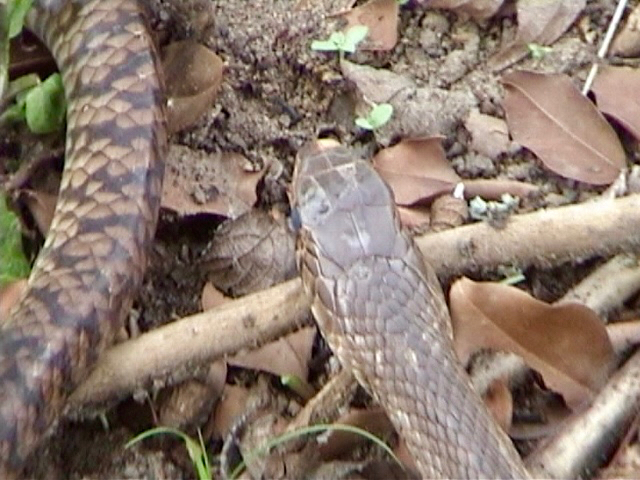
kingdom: Animalia
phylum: Chordata
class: Squamata
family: Colubridae
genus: Ptyas
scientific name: Ptyas mucosa
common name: Oriental ratsnake
